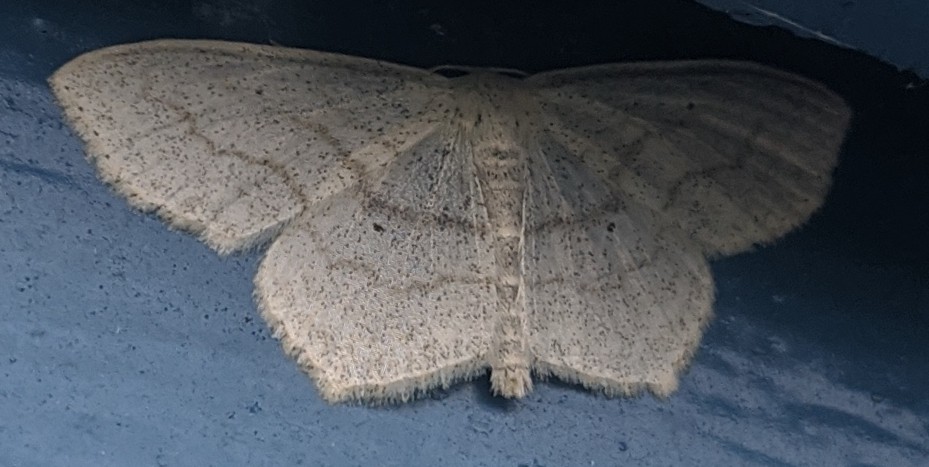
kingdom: Animalia
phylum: Arthropoda
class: Insecta
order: Lepidoptera
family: Geometridae
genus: Scopula
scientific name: Scopula limboundata
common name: Large lace border
